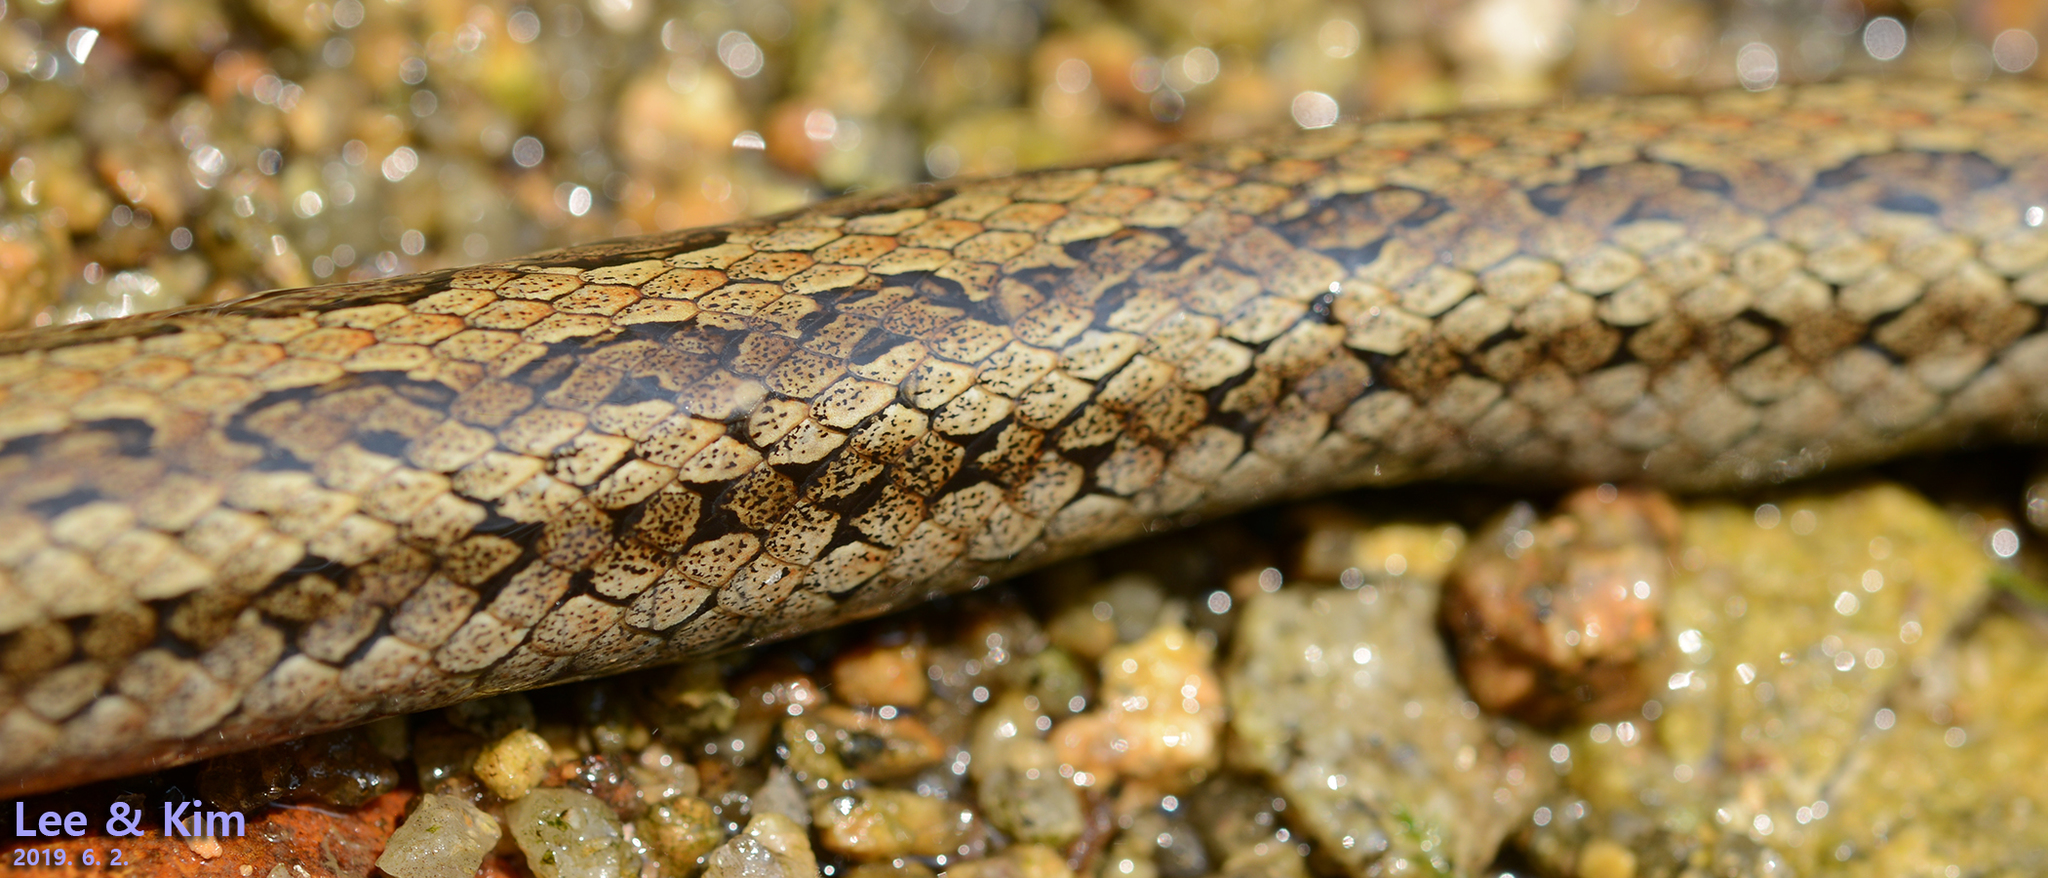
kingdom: Animalia
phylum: Chordata
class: Squamata
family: Colubridae
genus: Oocatochus
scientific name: Oocatochus rufodorsatus
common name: Frog-eating rat snake
